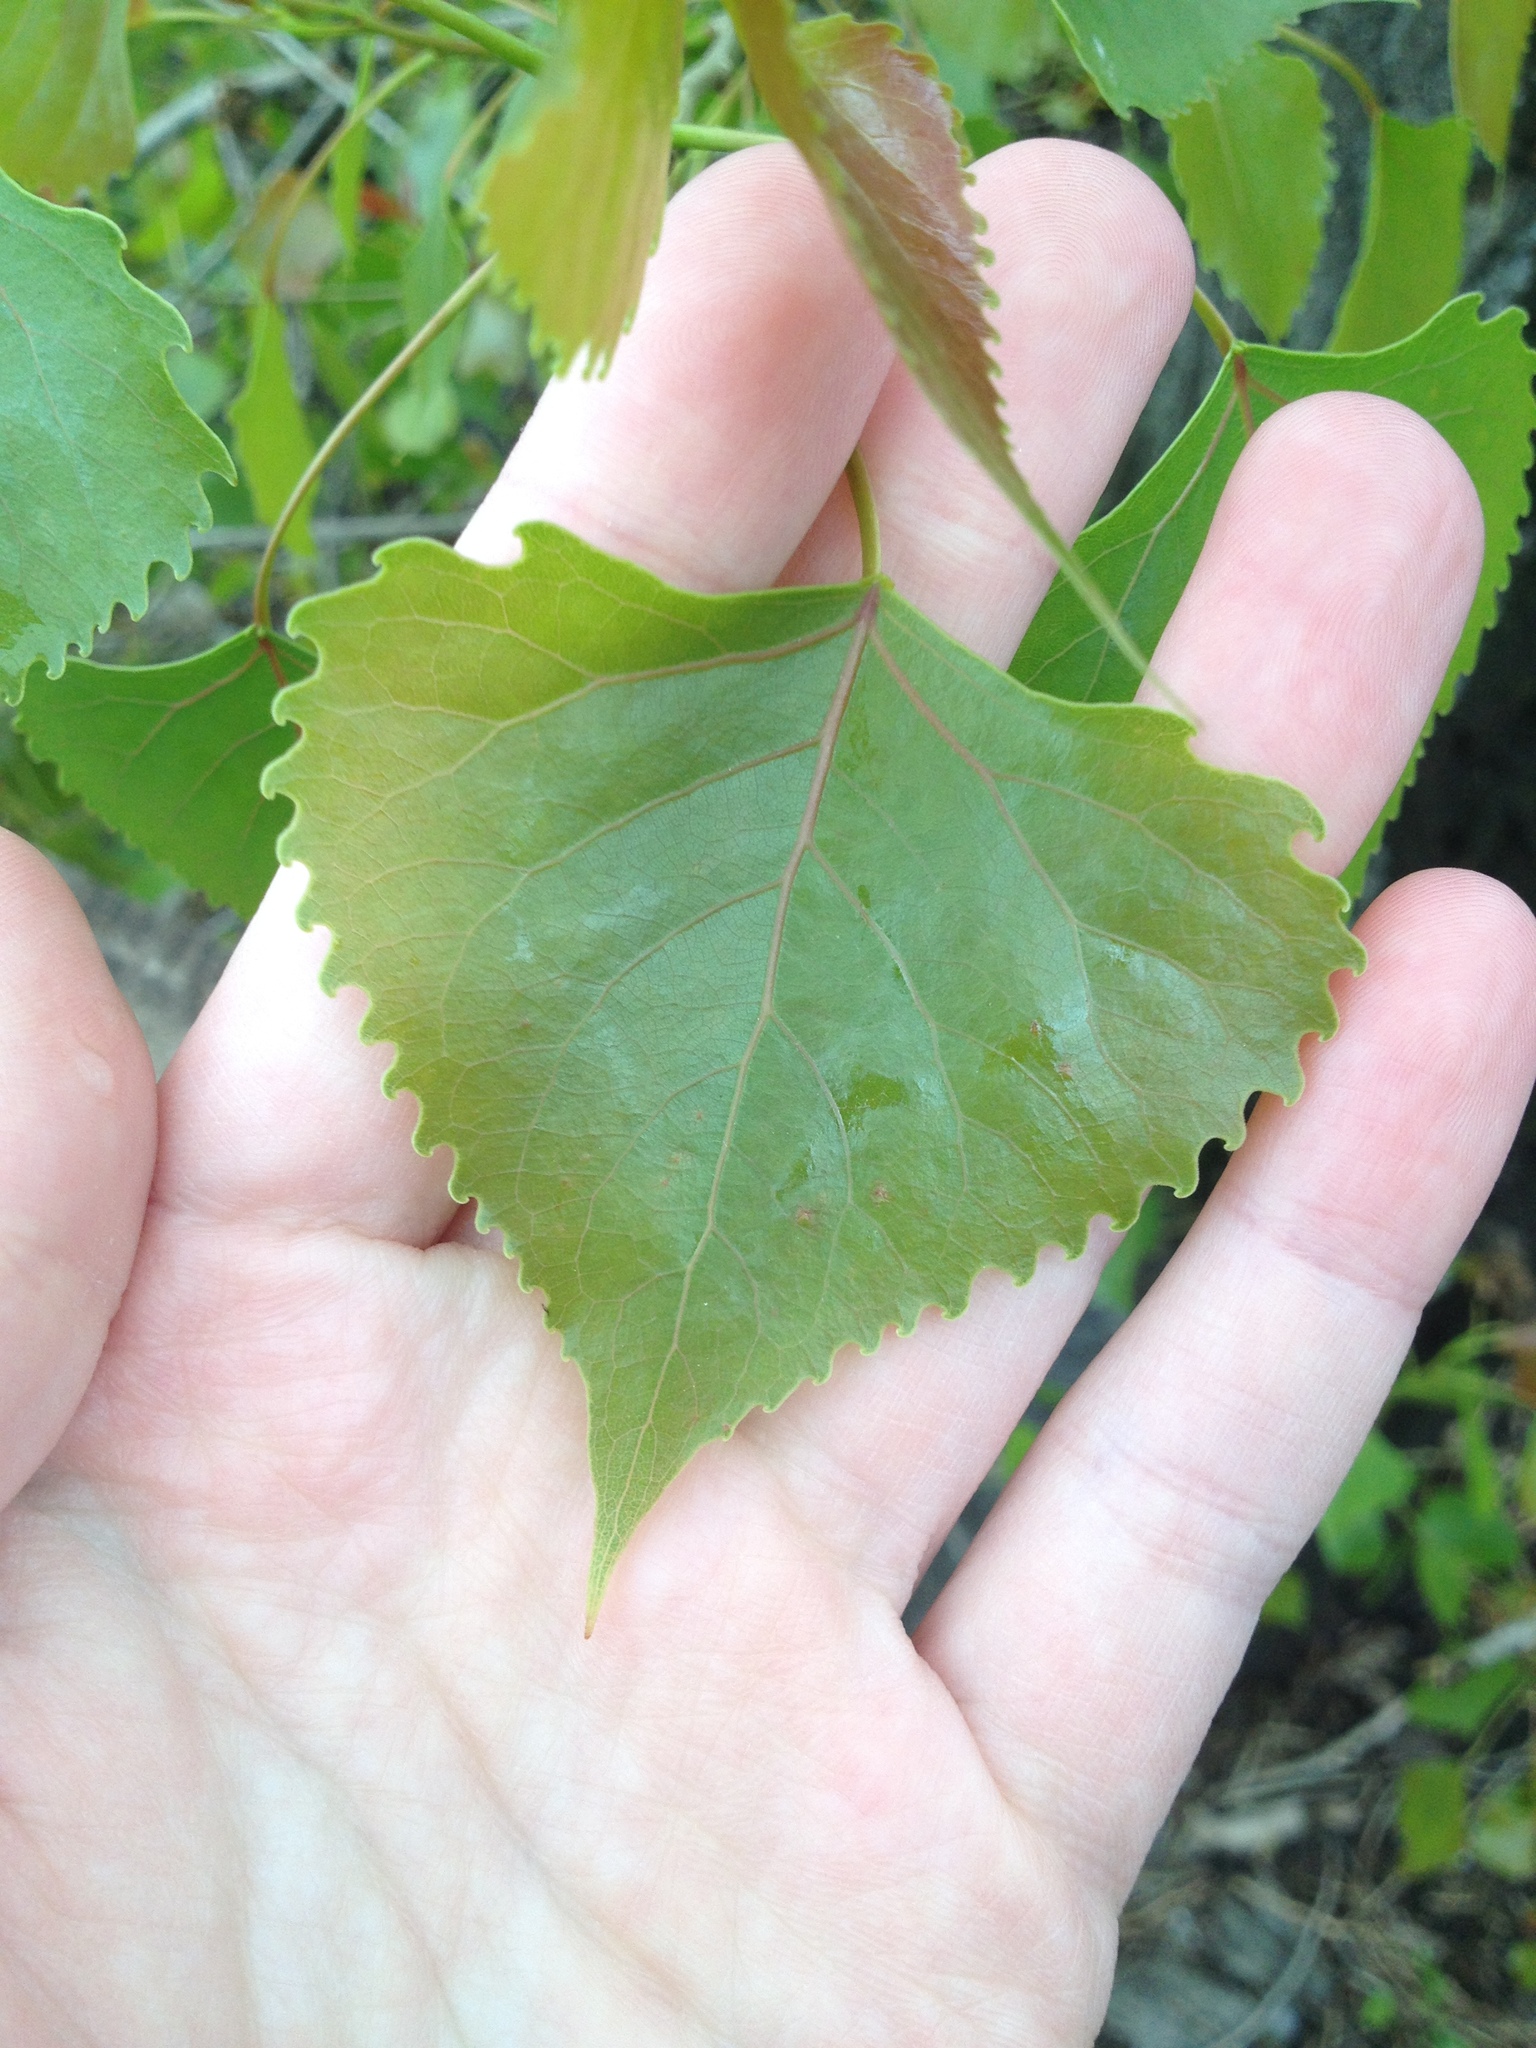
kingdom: Plantae
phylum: Tracheophyta
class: Magnoliopsida
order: Malpighiales
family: Salicaceae
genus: Populus
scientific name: Populus deltoides
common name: Eastern cottonwood
